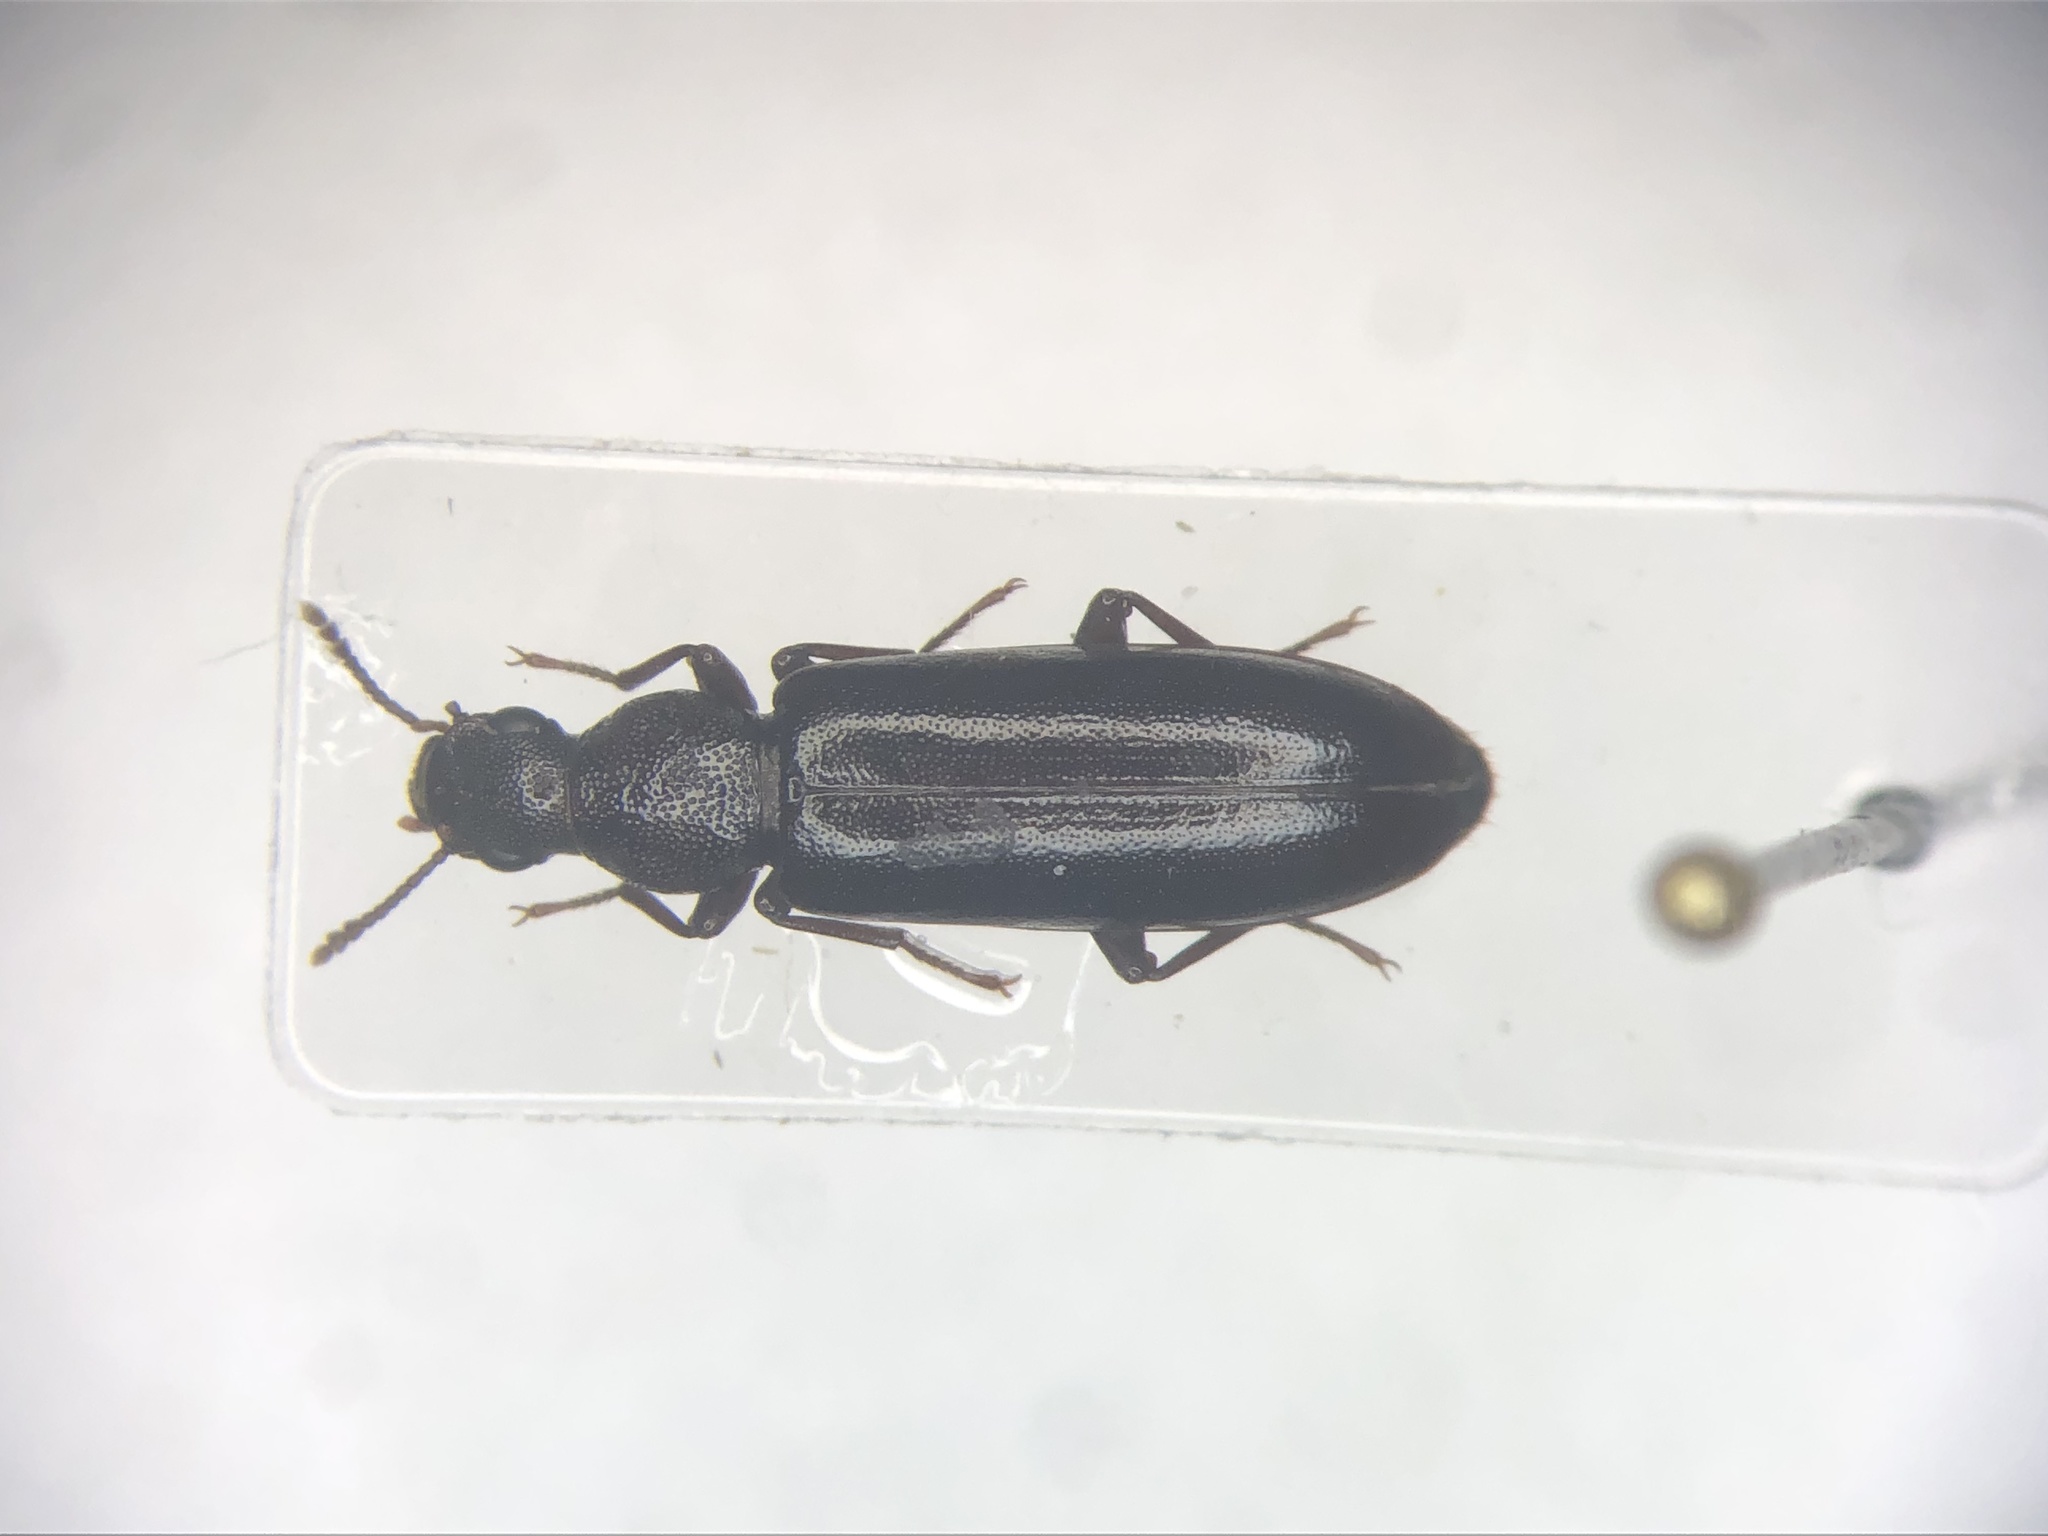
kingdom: Animalia
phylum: Arthropoda
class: Insecta
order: Coleoptera
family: Boridae
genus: Boros
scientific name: Boros unicolor
